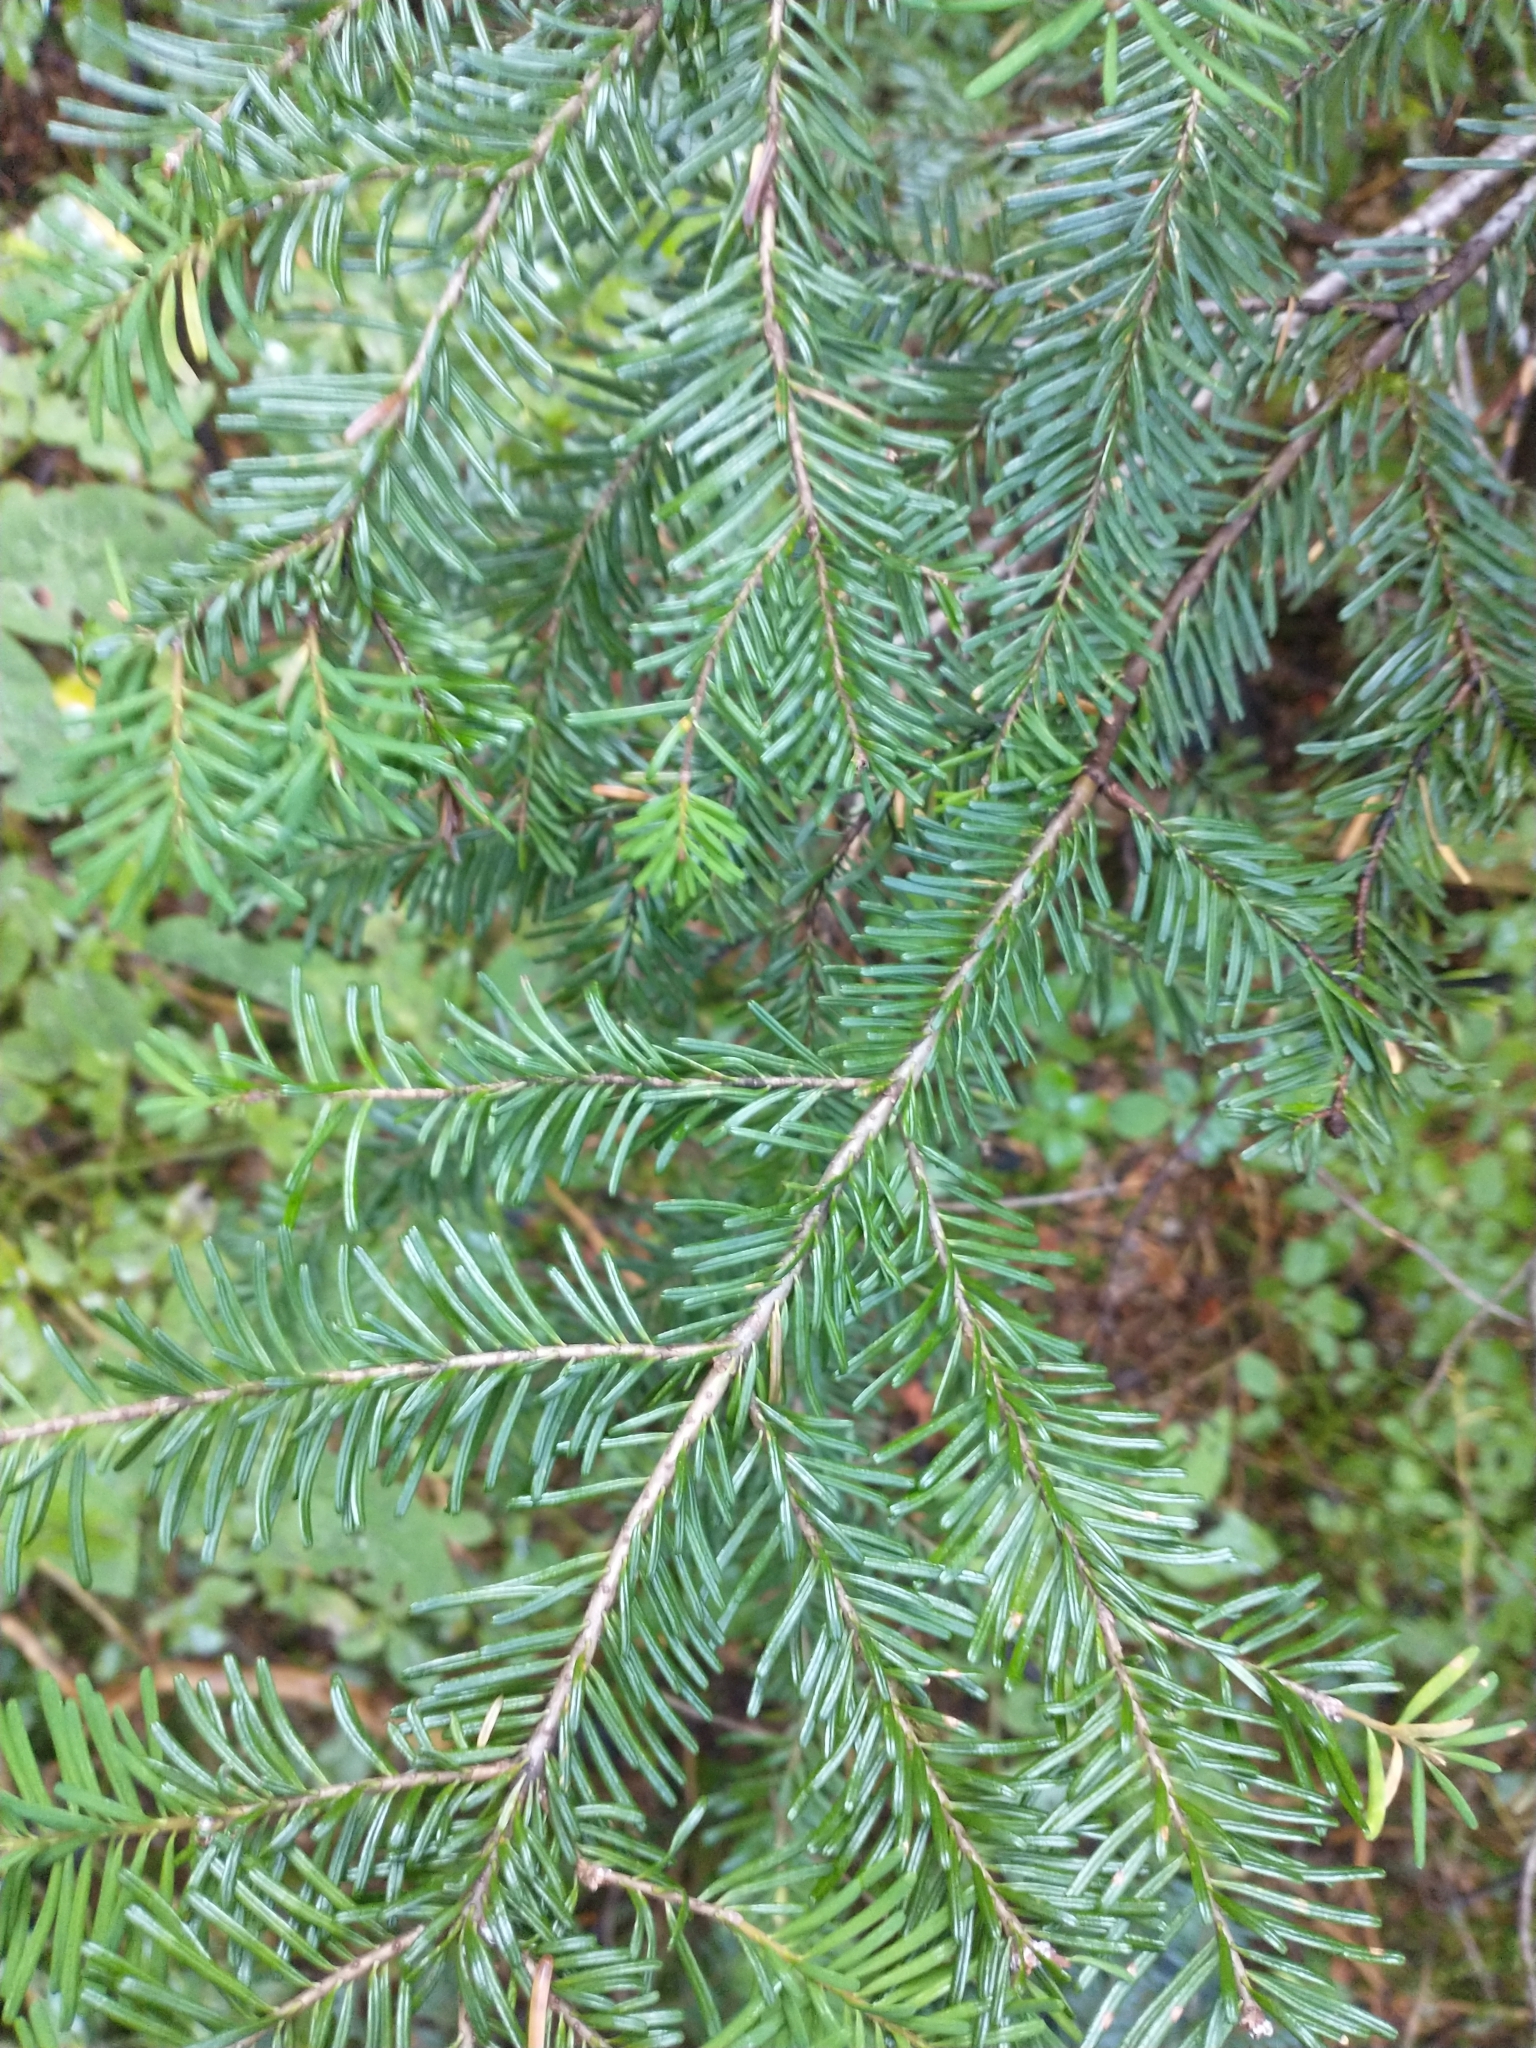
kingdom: Plantae
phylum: Tracheophyta
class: Pinopsida
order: Pinales
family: Pinaceae
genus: Abies
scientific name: Abies amabilis
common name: Pacific silver fir
